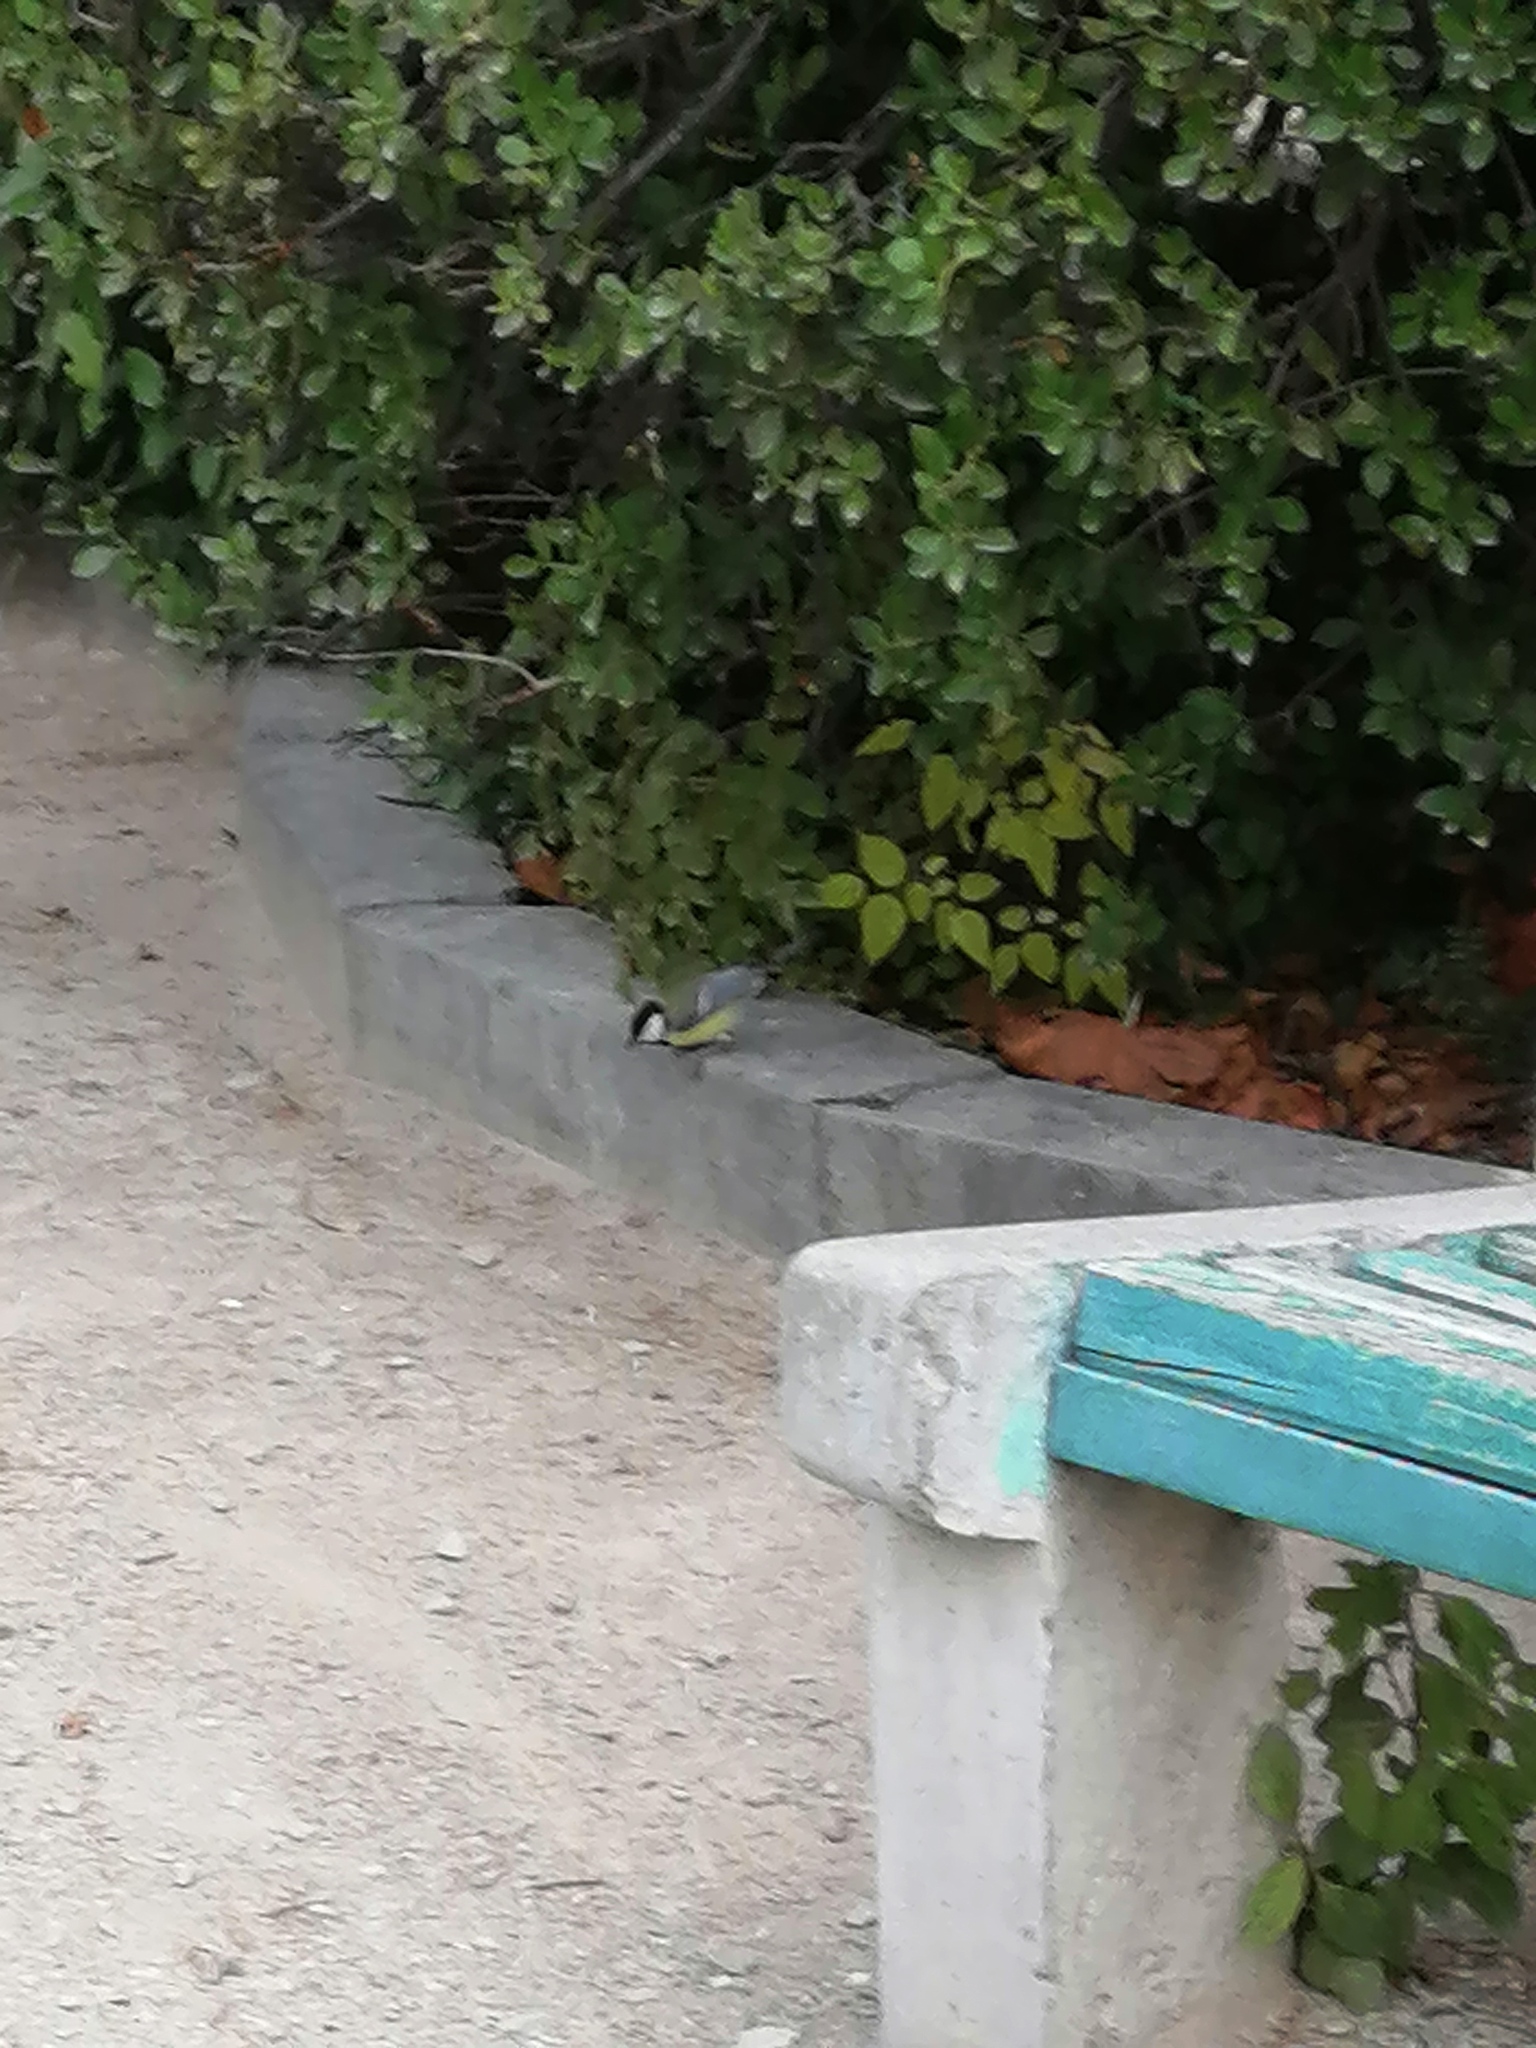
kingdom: Animalia
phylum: Chordata
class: Aves
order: Passeriformes
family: Paridae
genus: Parus
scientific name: Parus major
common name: Great tit
